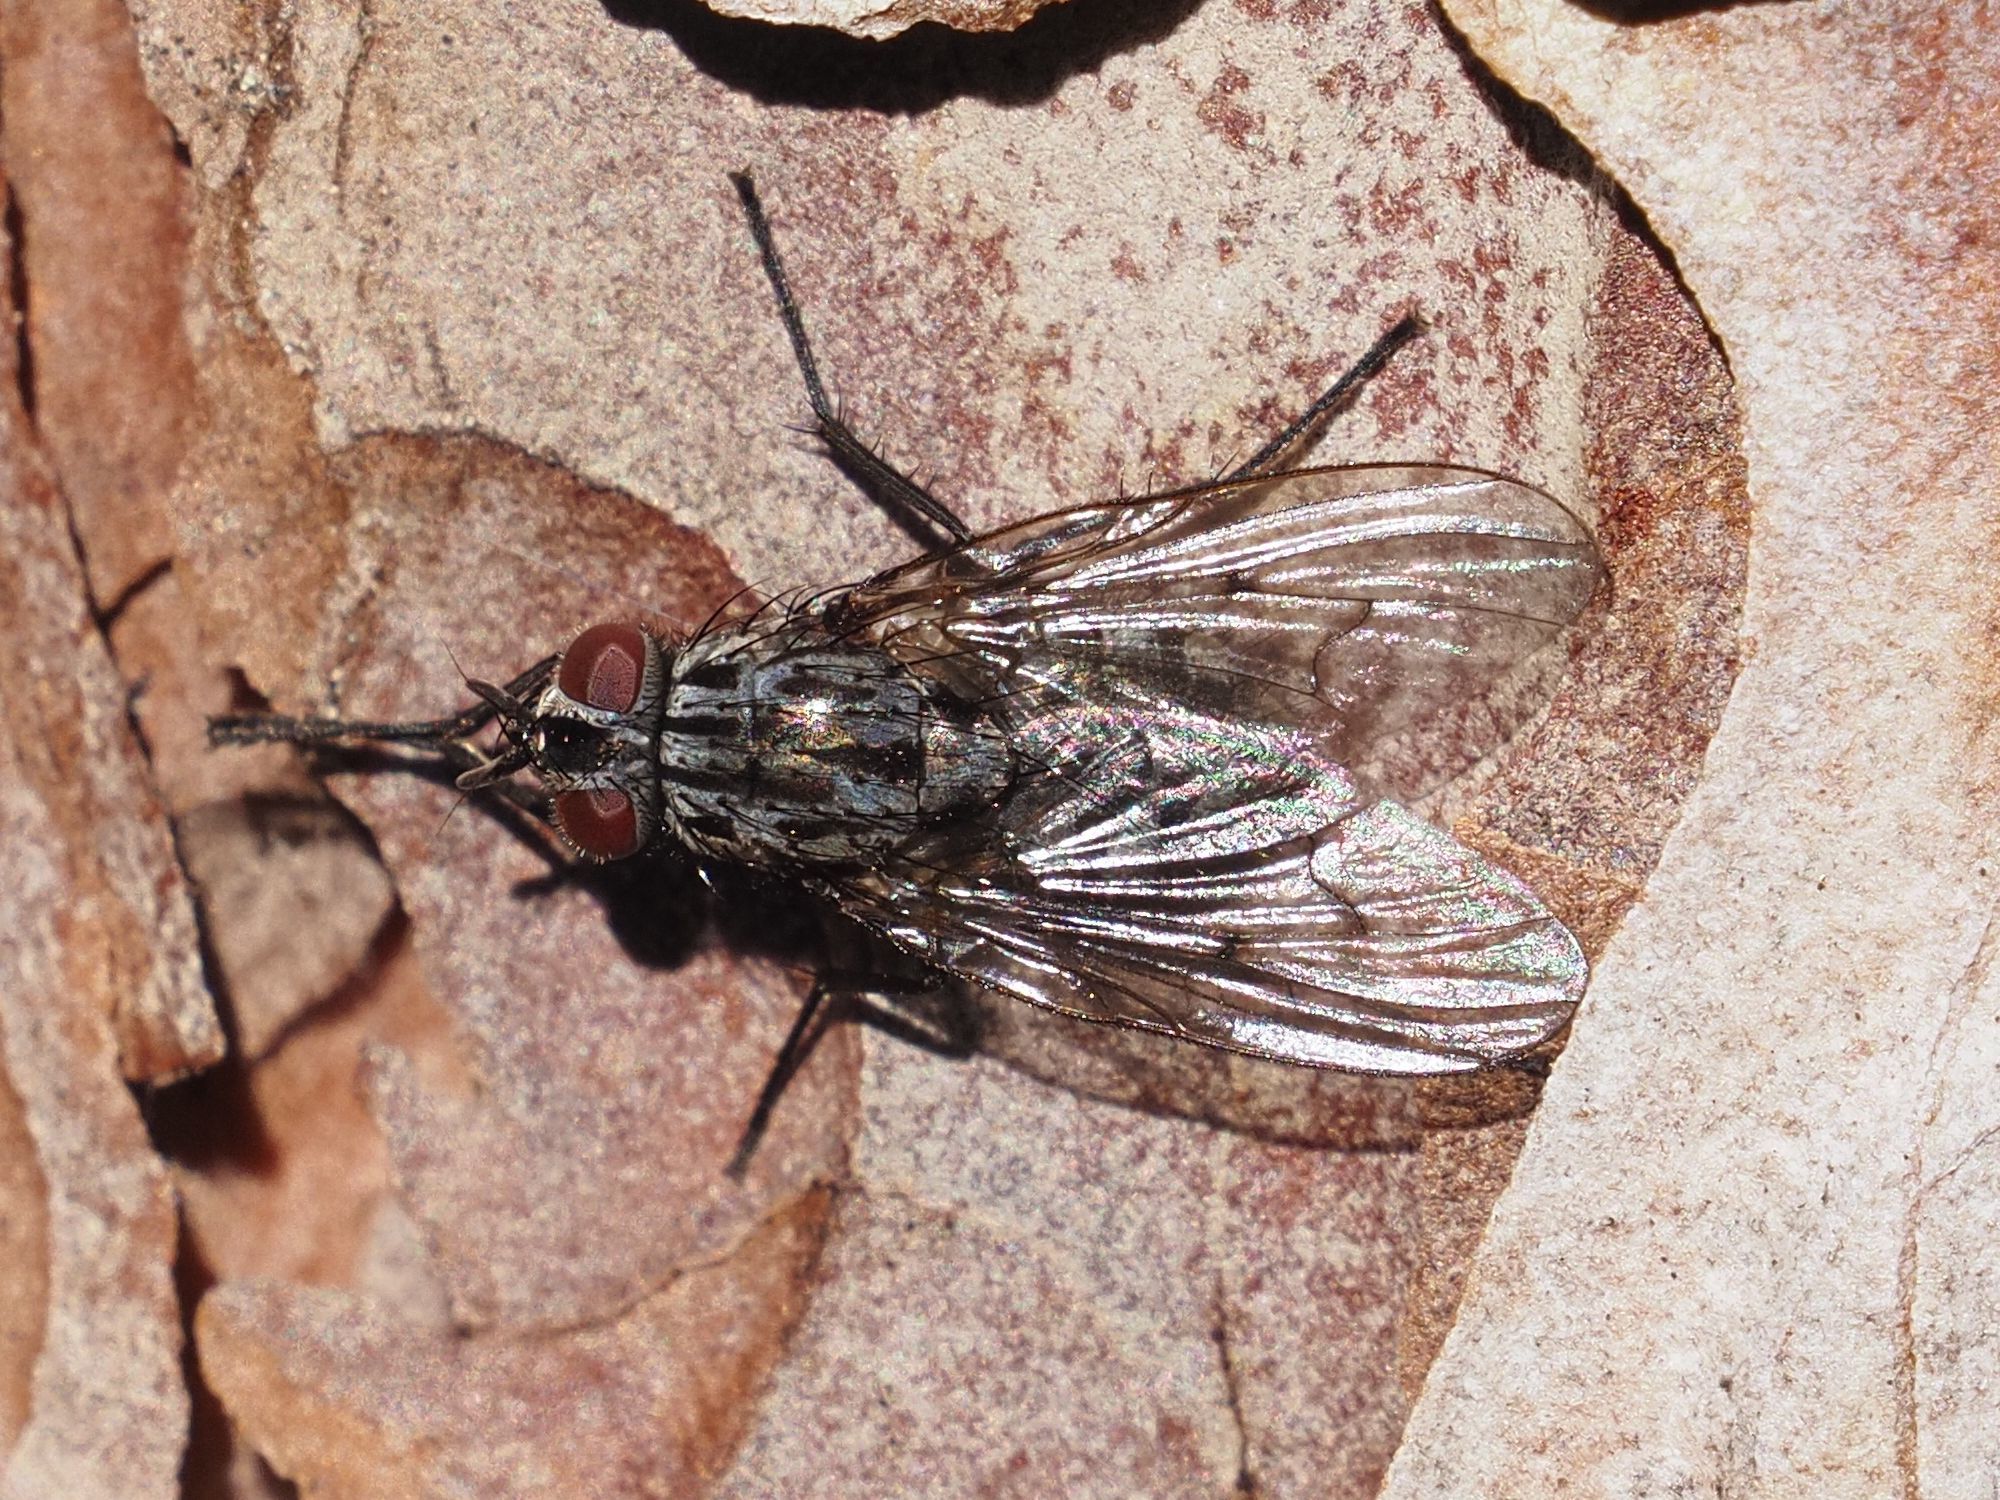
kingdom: Animalia
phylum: Arthropoda
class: Insecta
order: Diptera
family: Muscidae
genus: Phaonia
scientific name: Phaonia trimaculata
